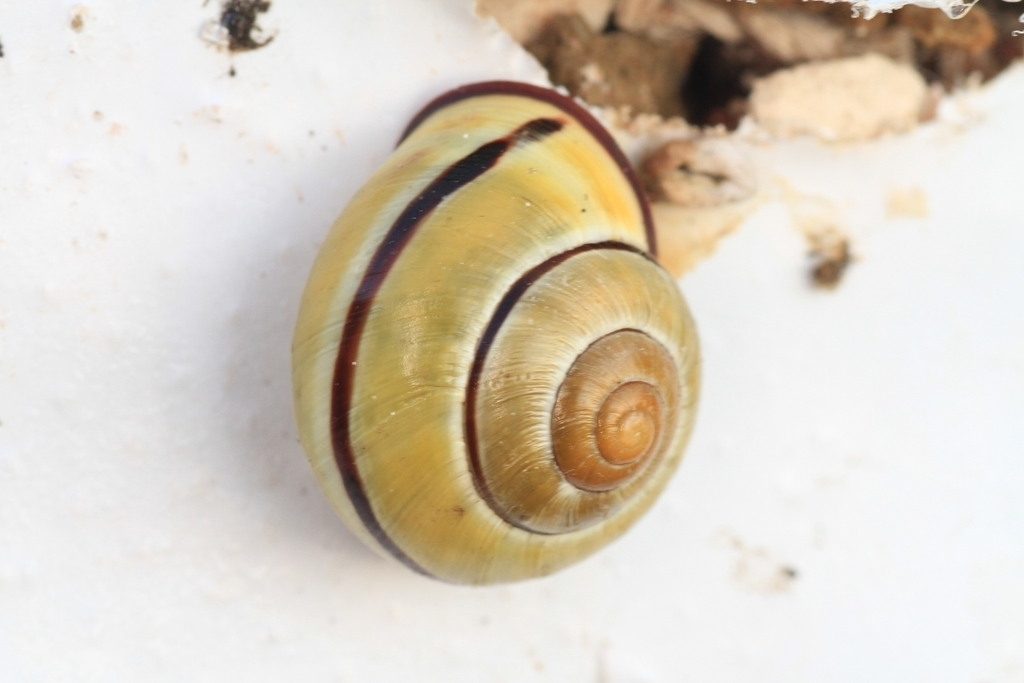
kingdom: Animalia
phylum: Mollusca
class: Gastropoda
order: Stylommatophora
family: Helicidae
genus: Cepaea
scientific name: Cepaea nemoralis
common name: Grovesnail
